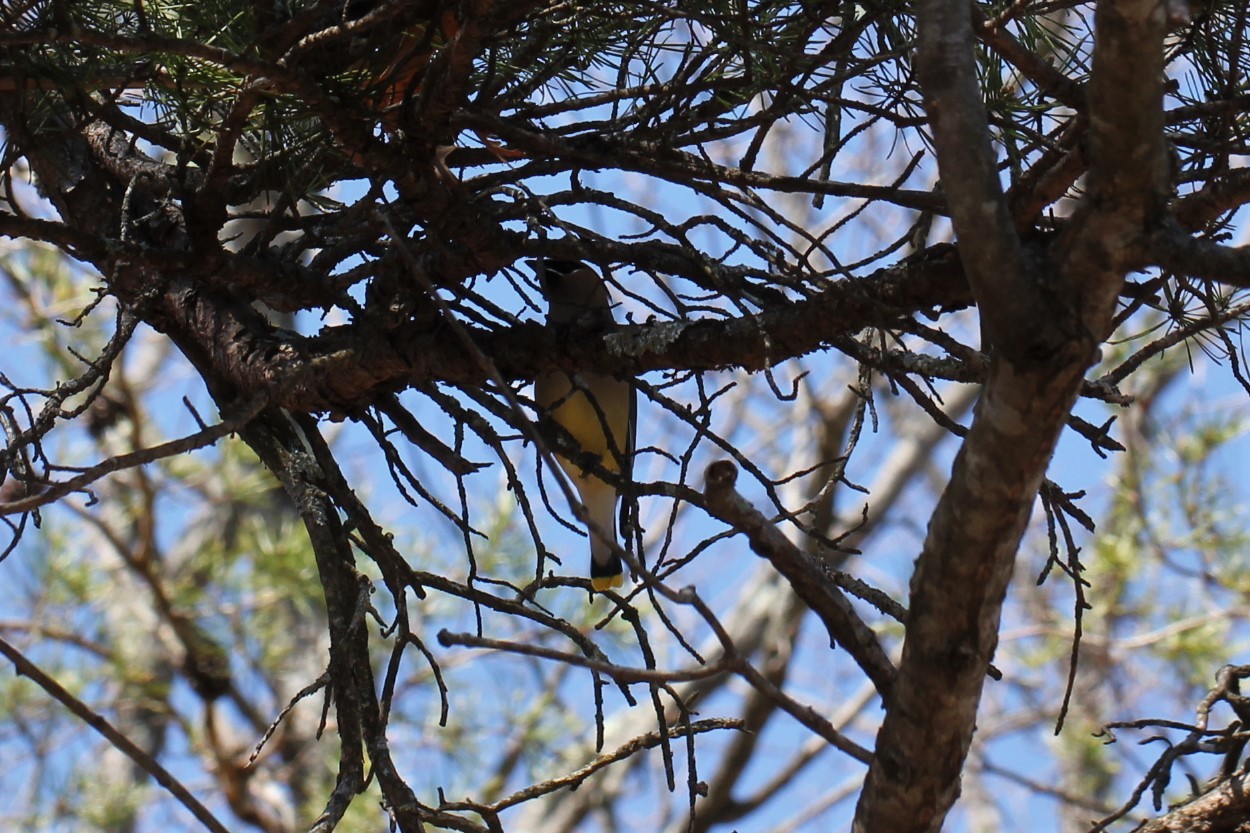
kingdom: Animalia
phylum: Chordata
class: Aves
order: Passeriformes
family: Bombycillidae
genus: Bombycilla
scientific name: Bombycilla cedrorum
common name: Cedar waxwing
